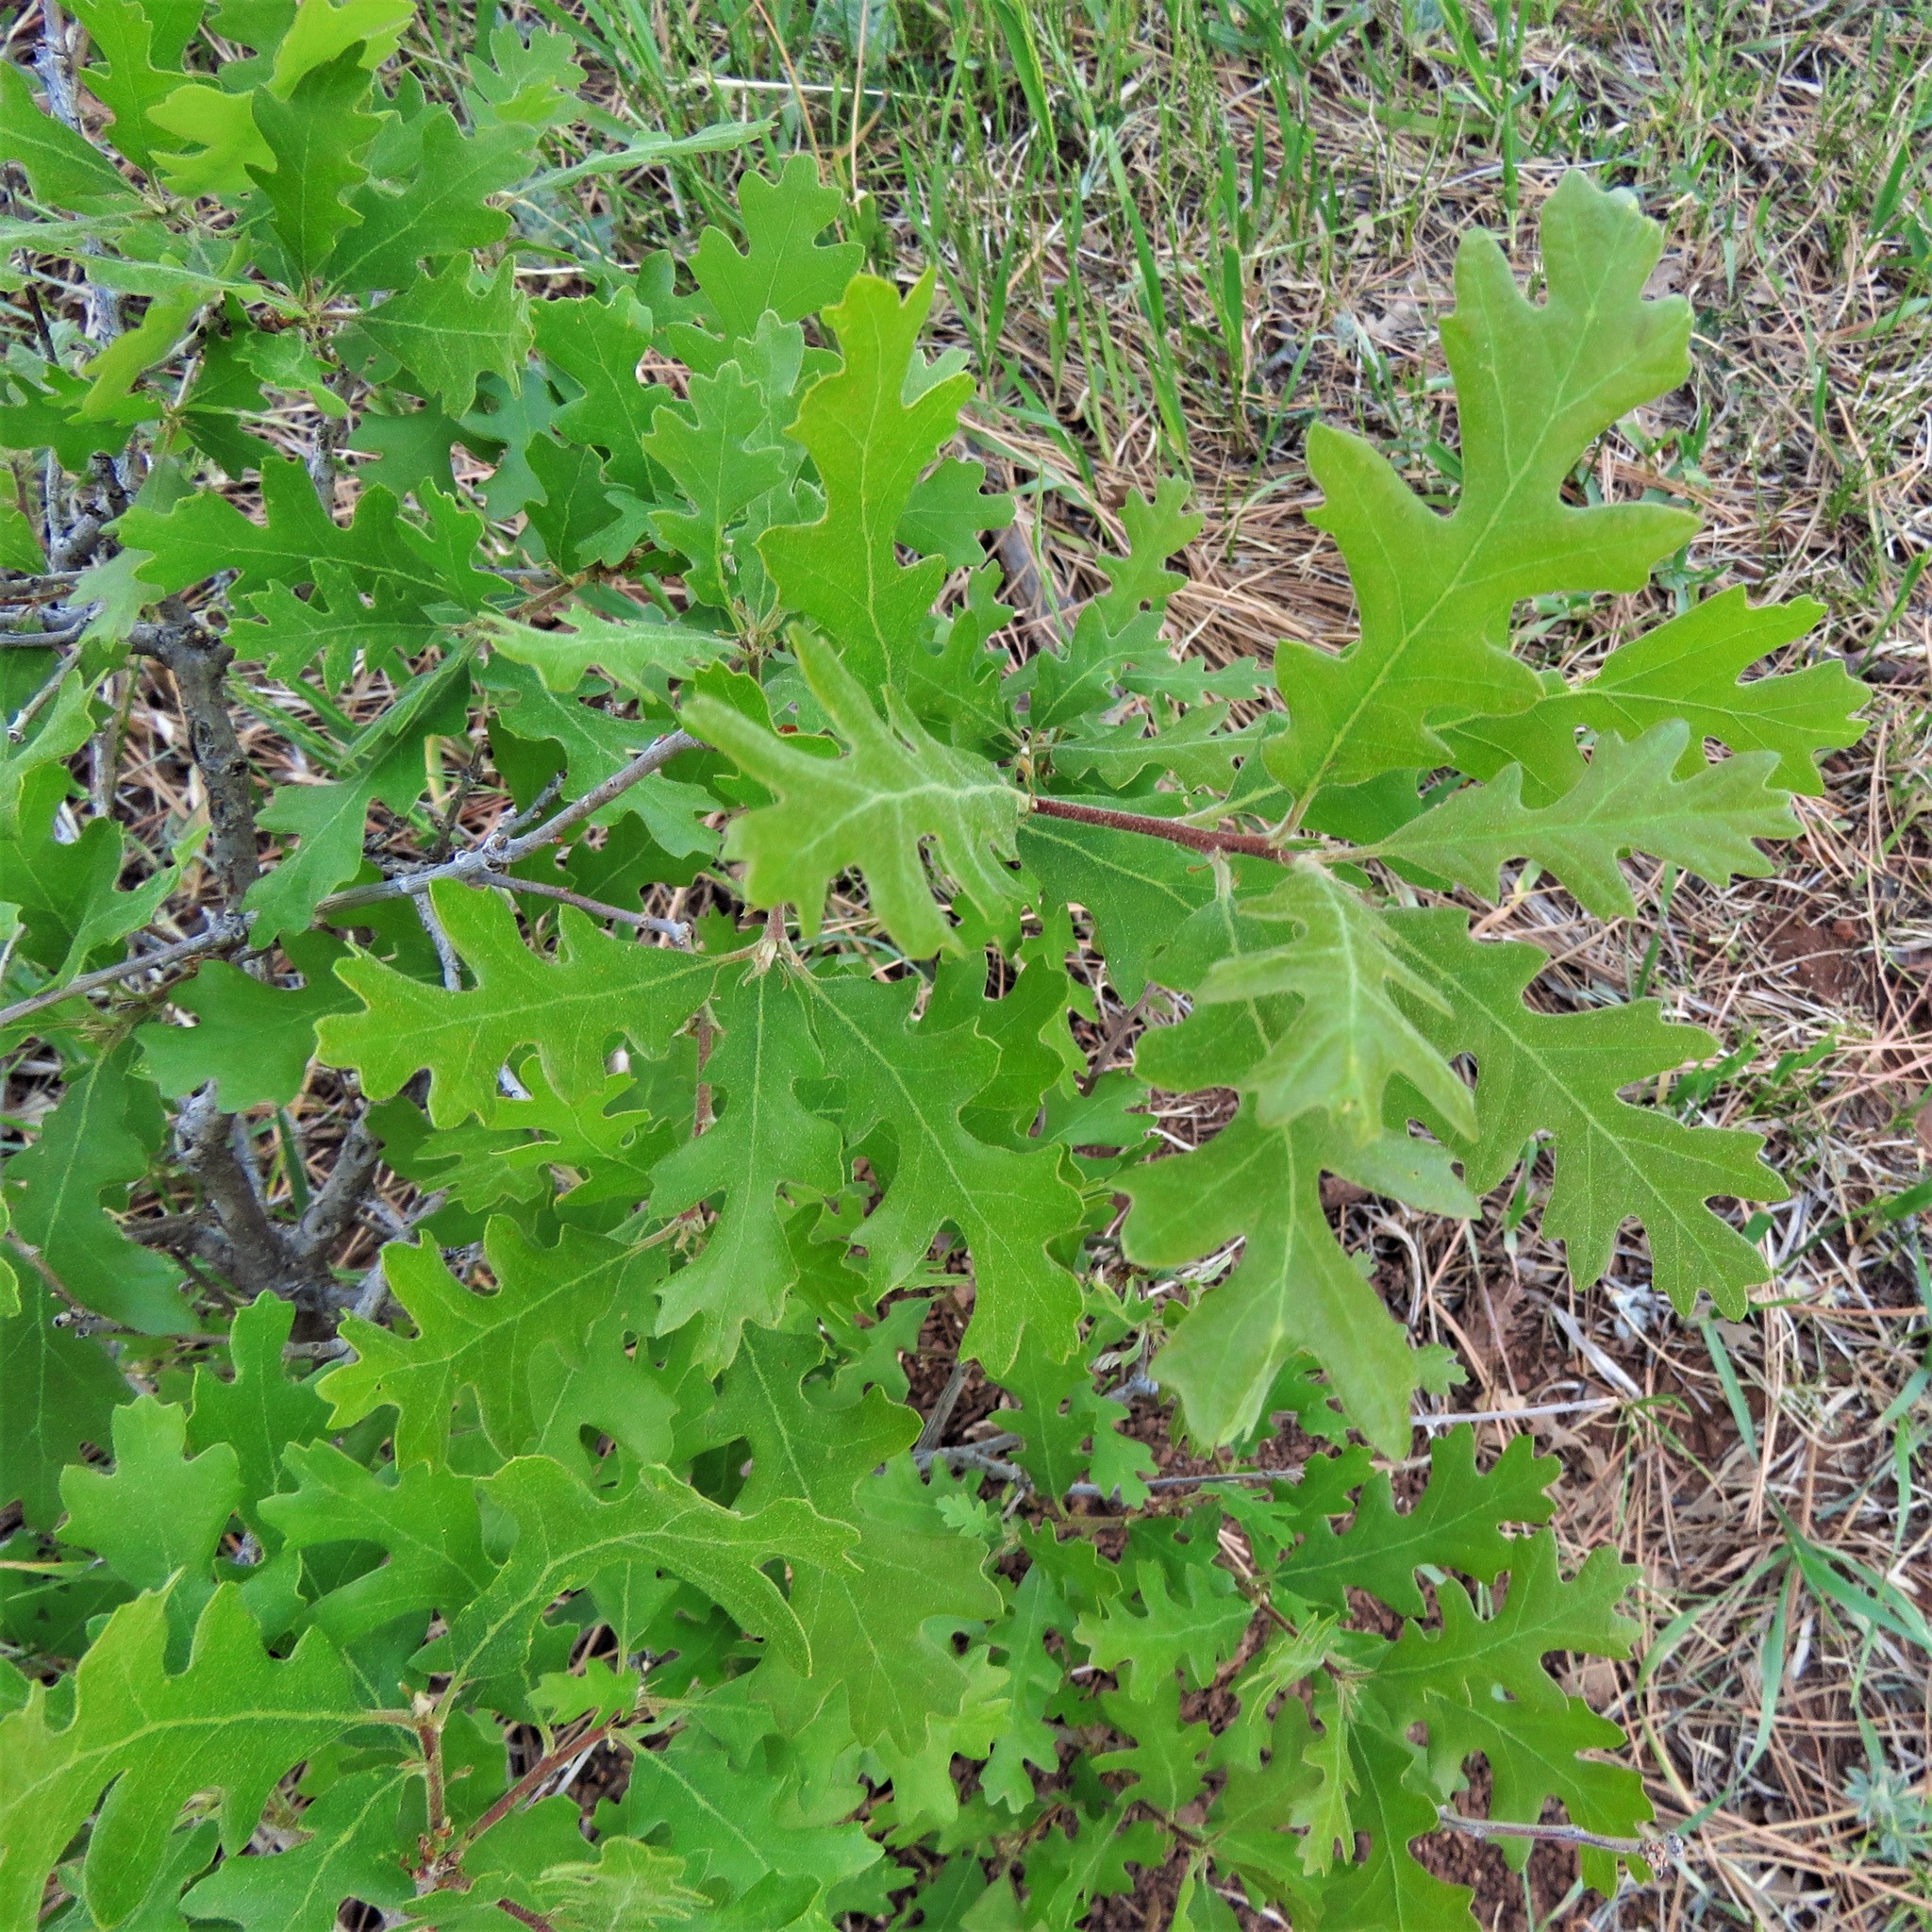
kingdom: Plantae
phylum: Tracheophyta
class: Magnoliopsida
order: Fagales
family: Fagaceae
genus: Quercus
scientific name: Quercus gambelii
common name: Gambel oak
